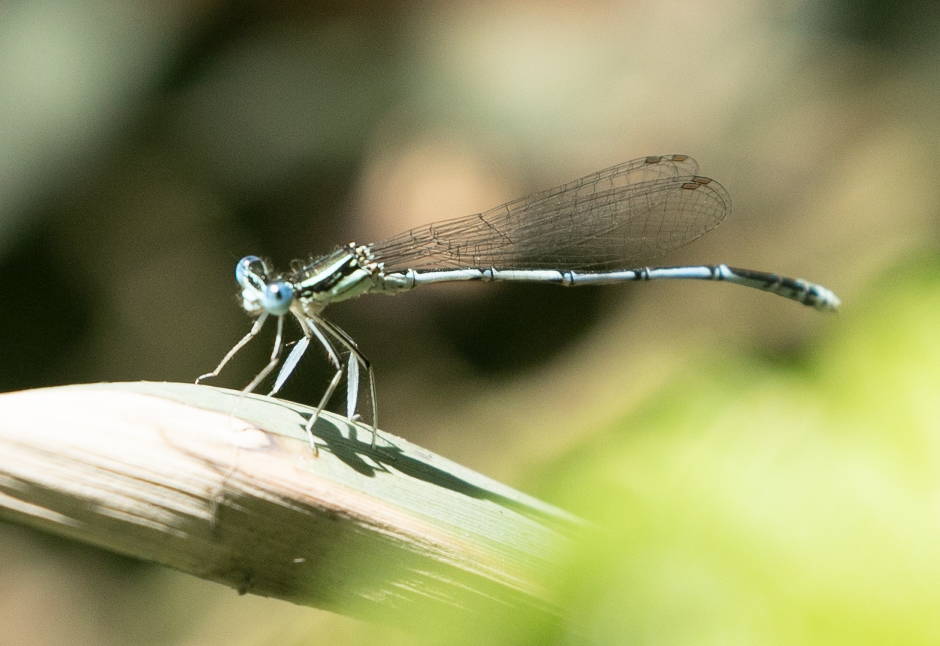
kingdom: Animalia
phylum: Arthropoda
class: Insecta
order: Odonata
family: Platycnemididae
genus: Platycnemis
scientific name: Platycnemis pennipes
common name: White-legged damselfly
